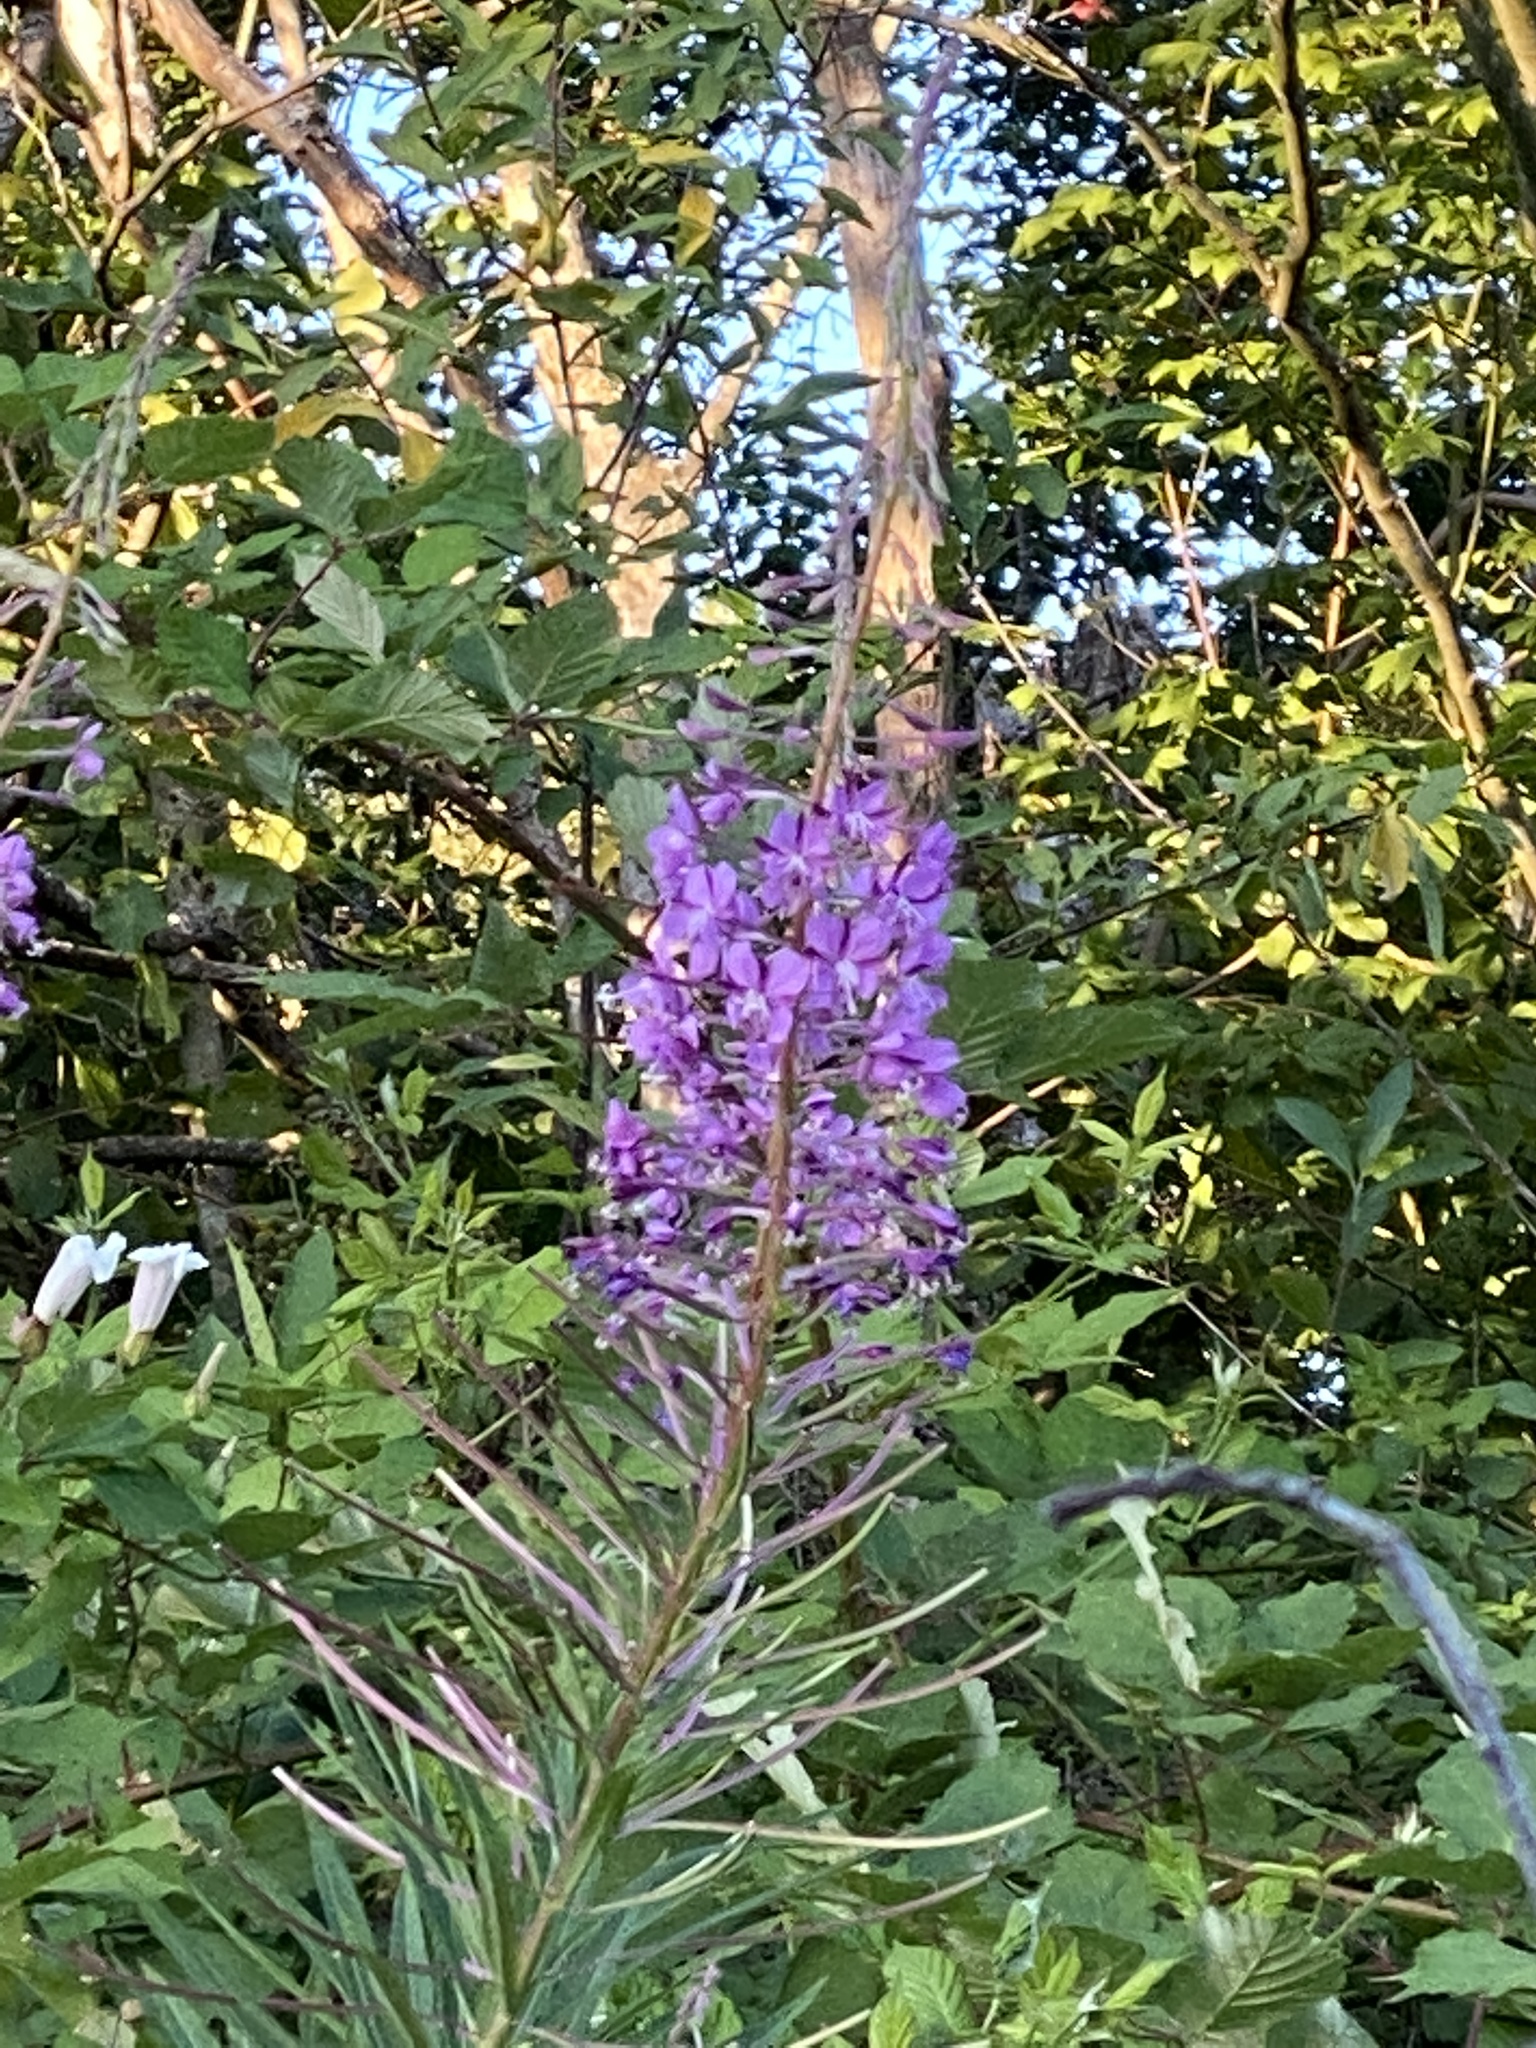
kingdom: Plantae
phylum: Tracheophyta
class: Magnoliopsida
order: Myrtales
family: Onagraceae
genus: Chamaenerion
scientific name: Chamaenerion angustifolium
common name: Fireweed
